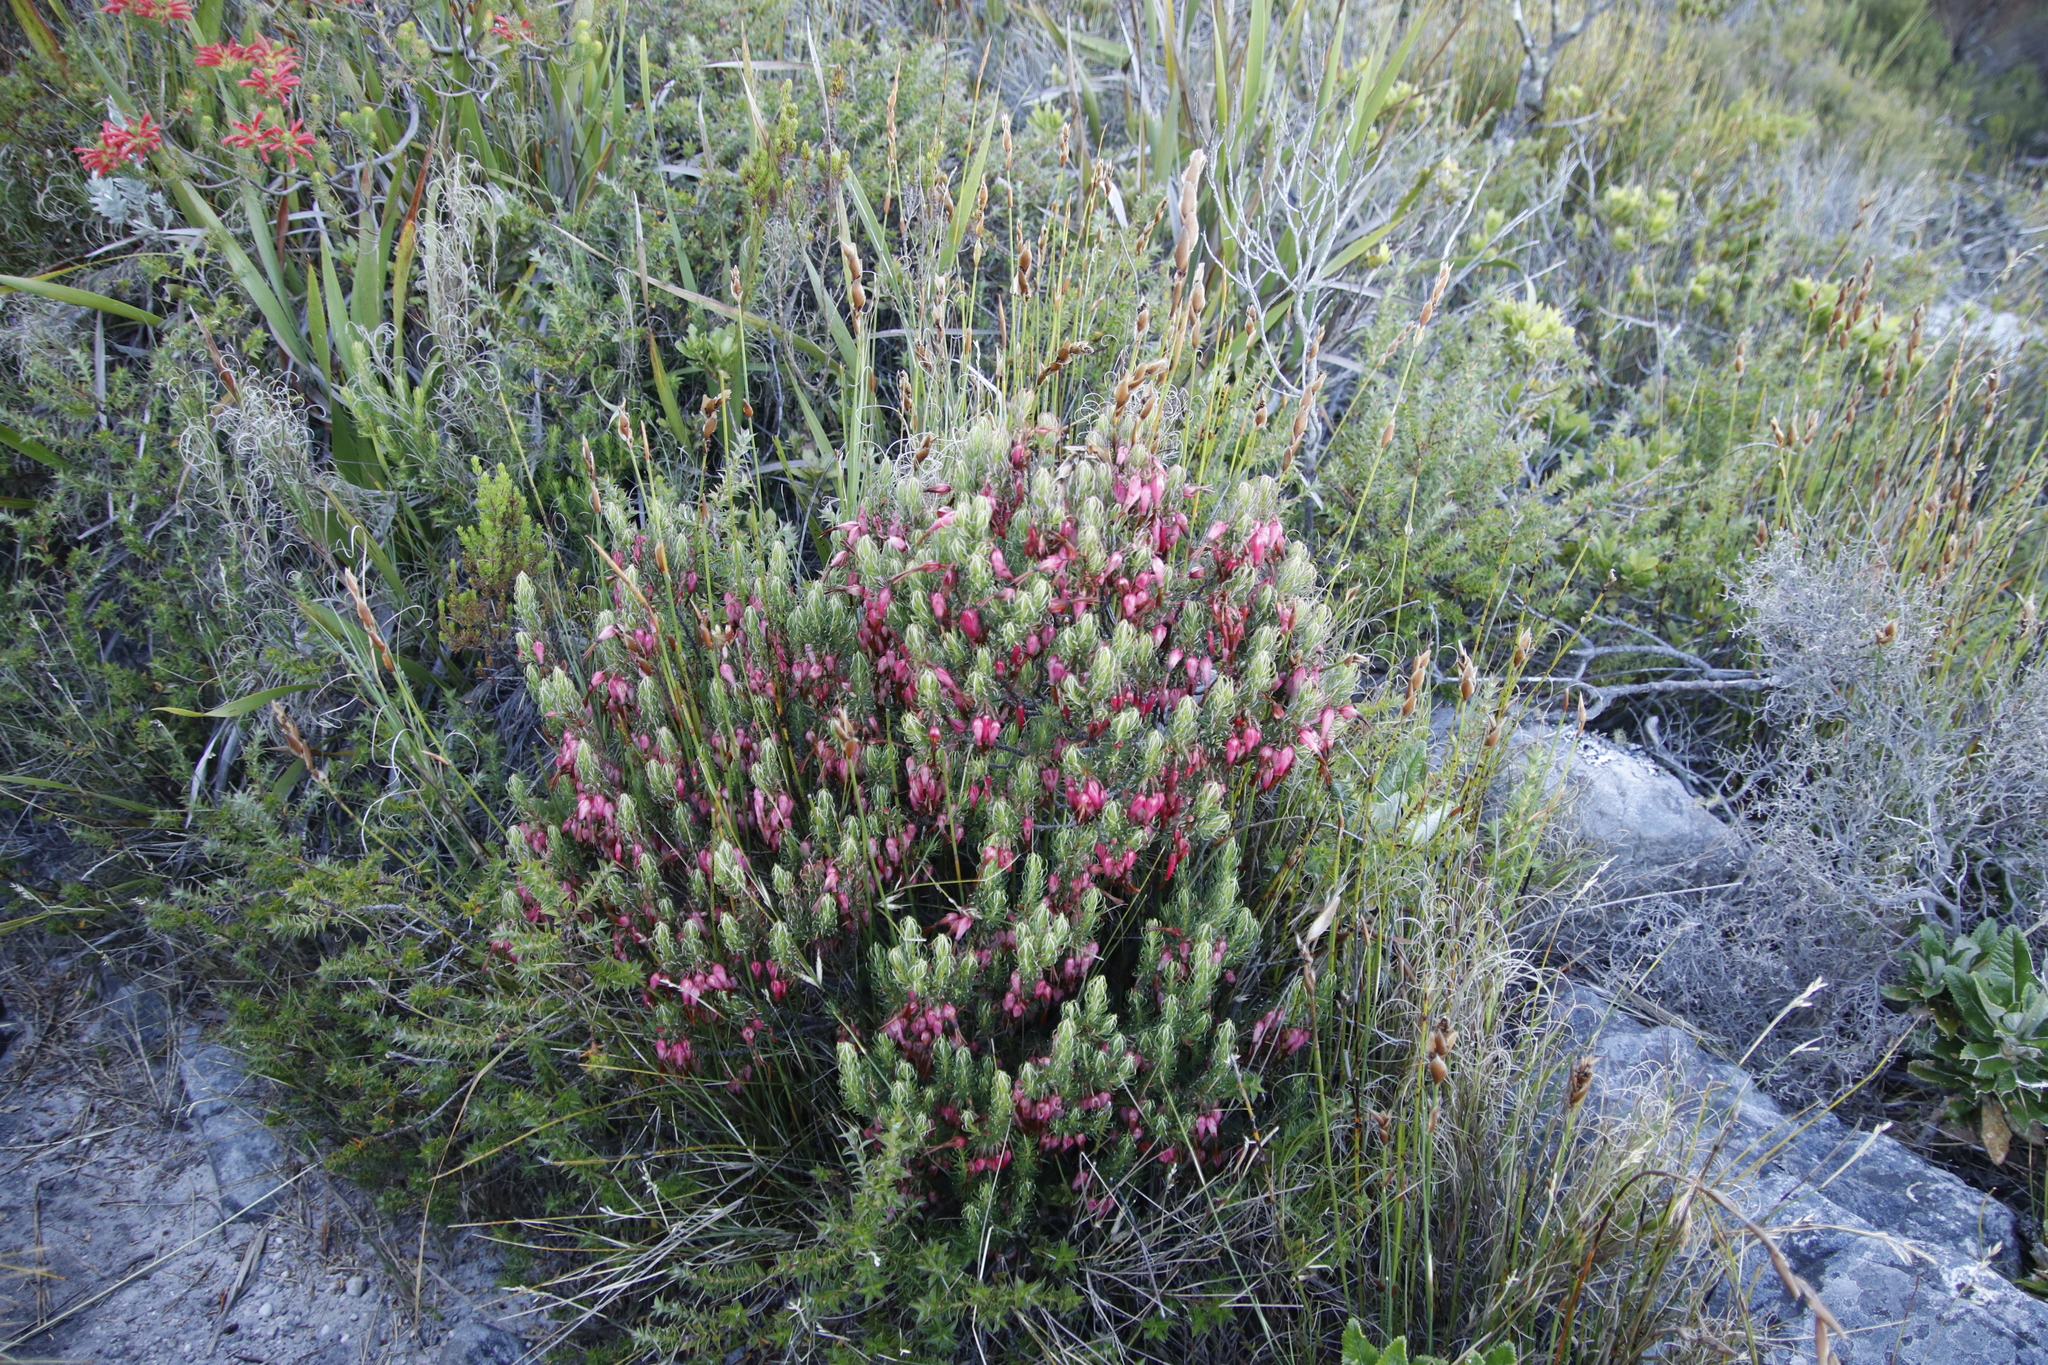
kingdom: Plantae
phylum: Tracheophyta
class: Magnoliopsida
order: Ericales
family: Ericaceae
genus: Erica
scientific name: Erica plukenetii
